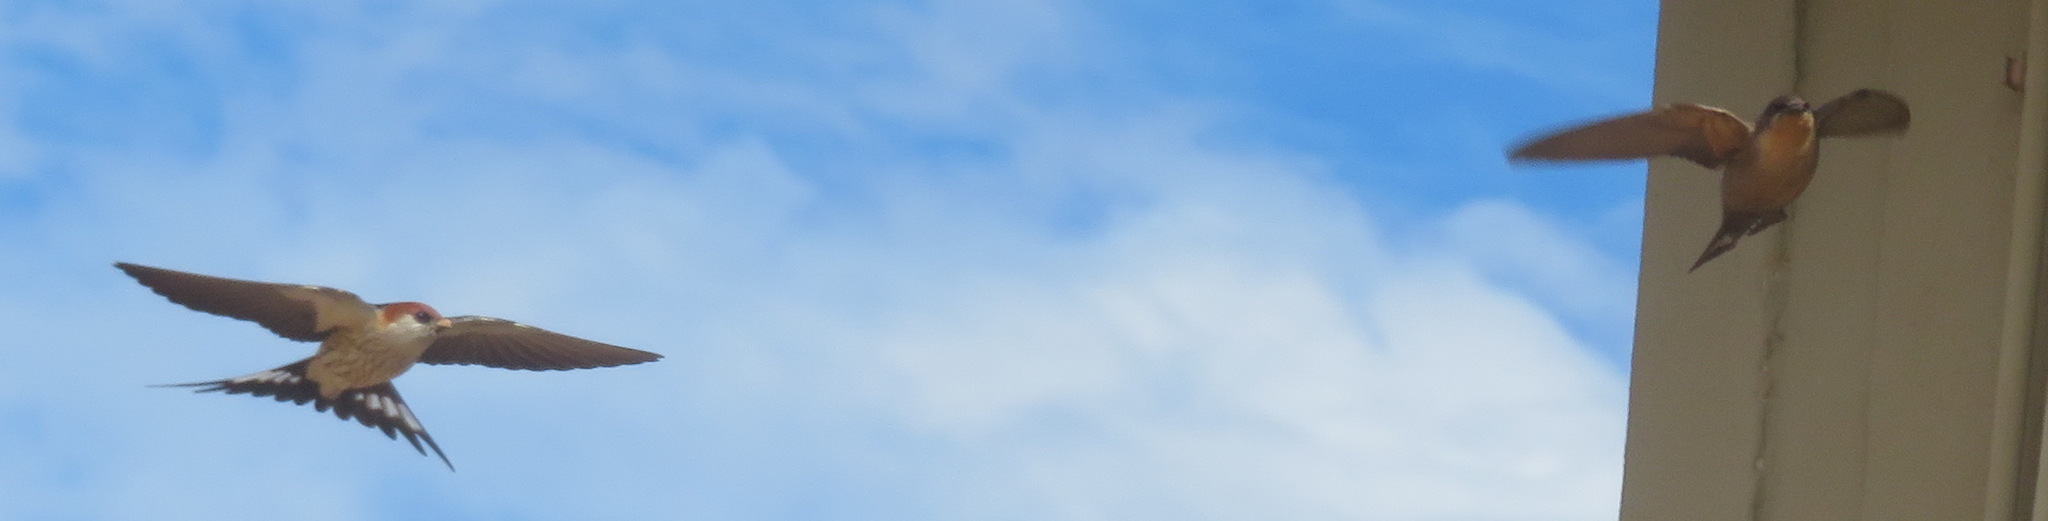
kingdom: Animalia
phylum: Chordata
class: Aves
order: Passeriformes
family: Hirundinidae
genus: Cecropis
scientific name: Cecropis cucullata
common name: Greater striped-swallow
